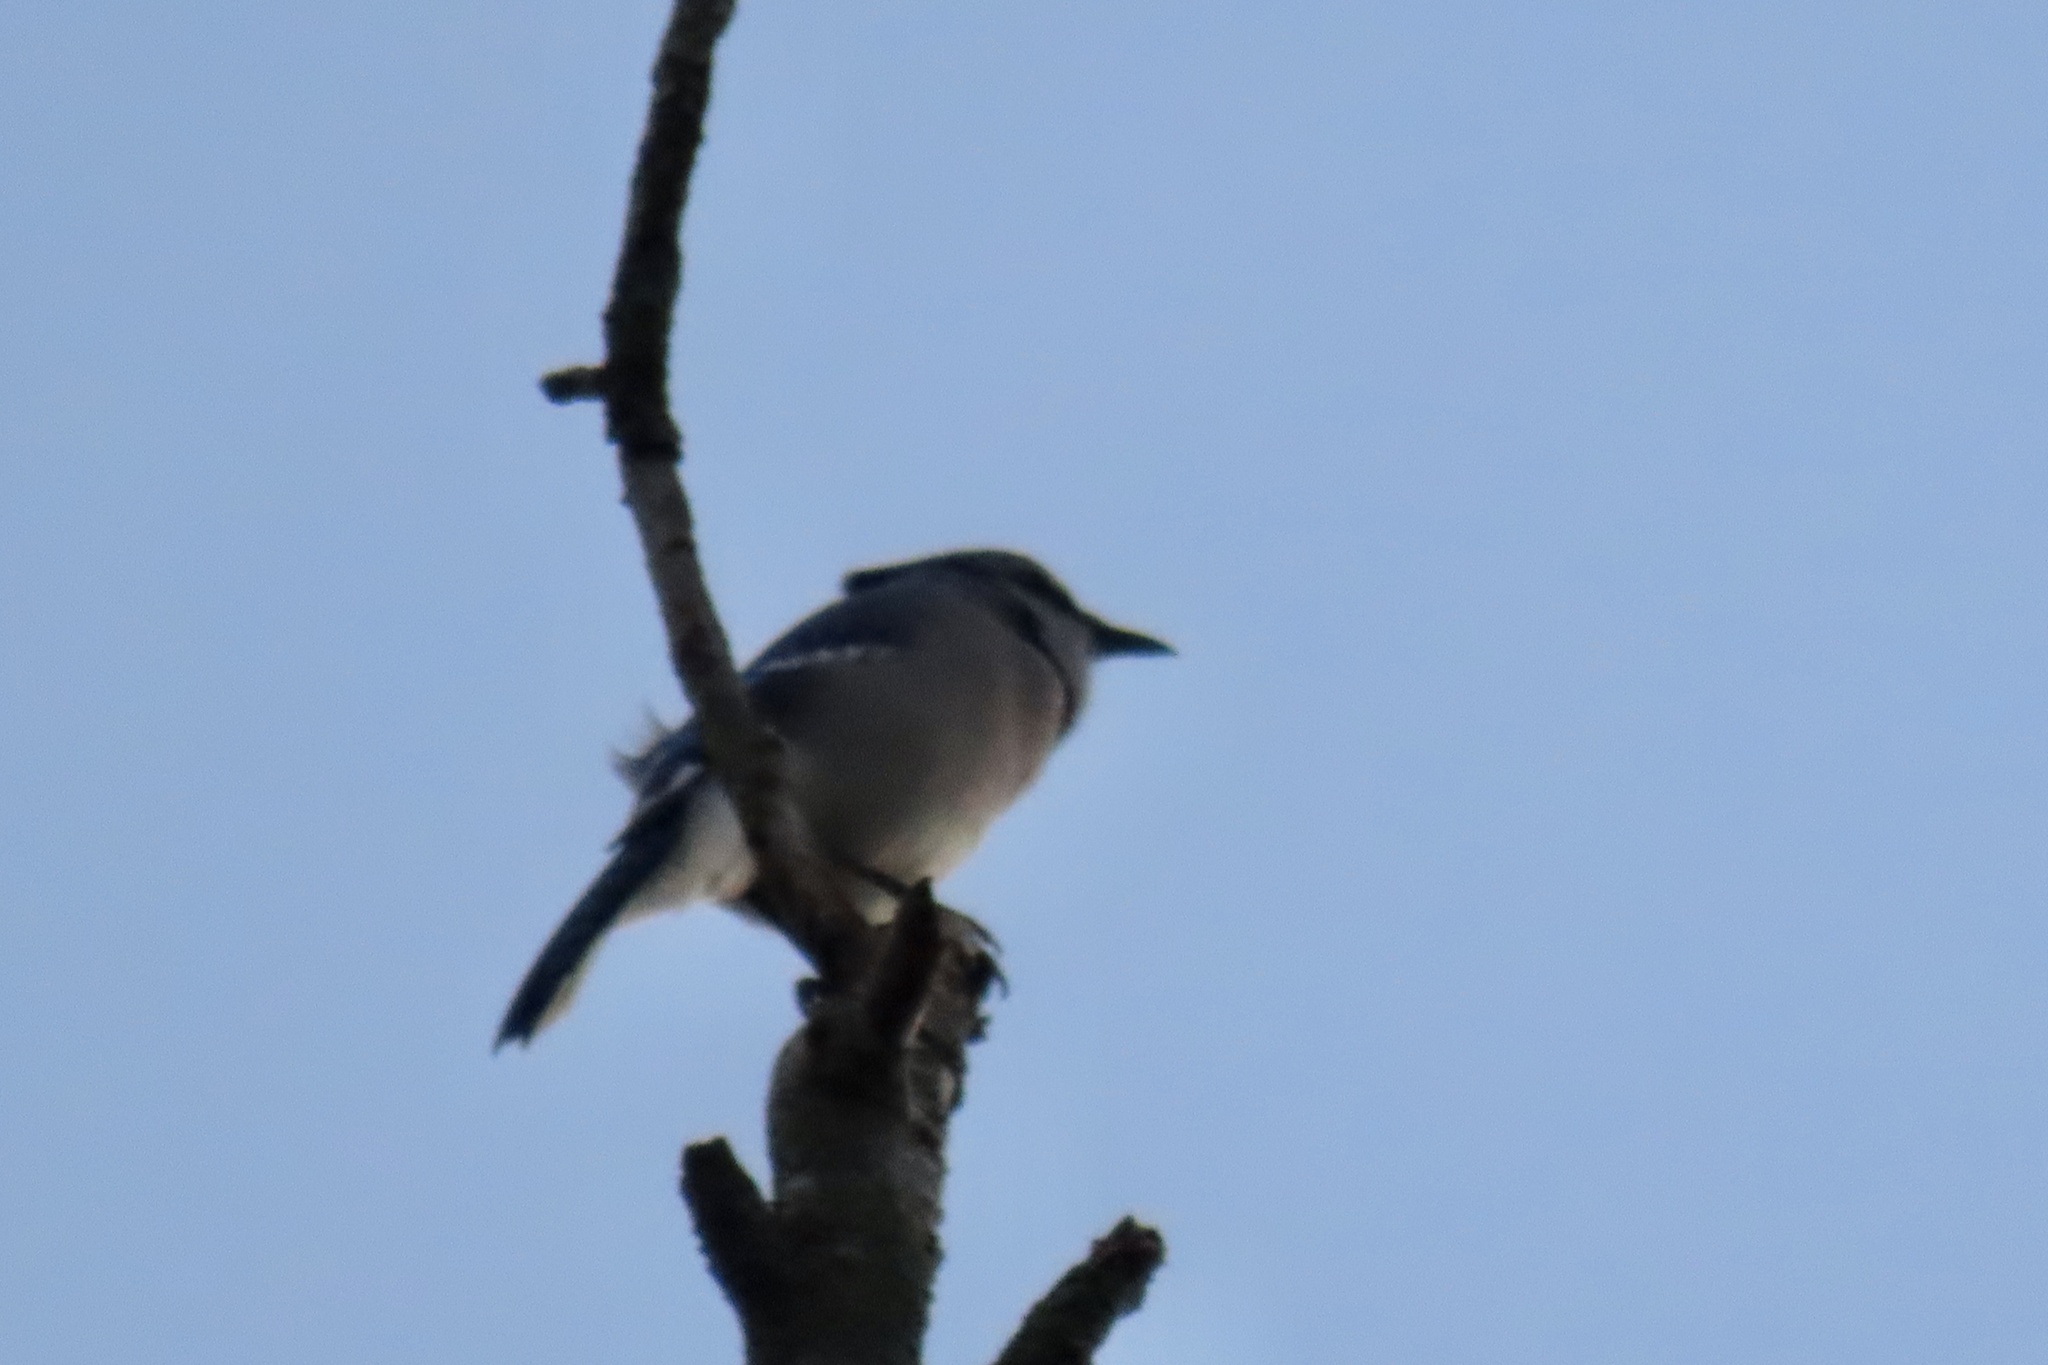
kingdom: Animalia
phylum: Chordata
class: Aves
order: Passeriformes
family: Corvidae
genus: Cyanocitta
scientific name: Cyanocitta cristata
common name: Blue jay
